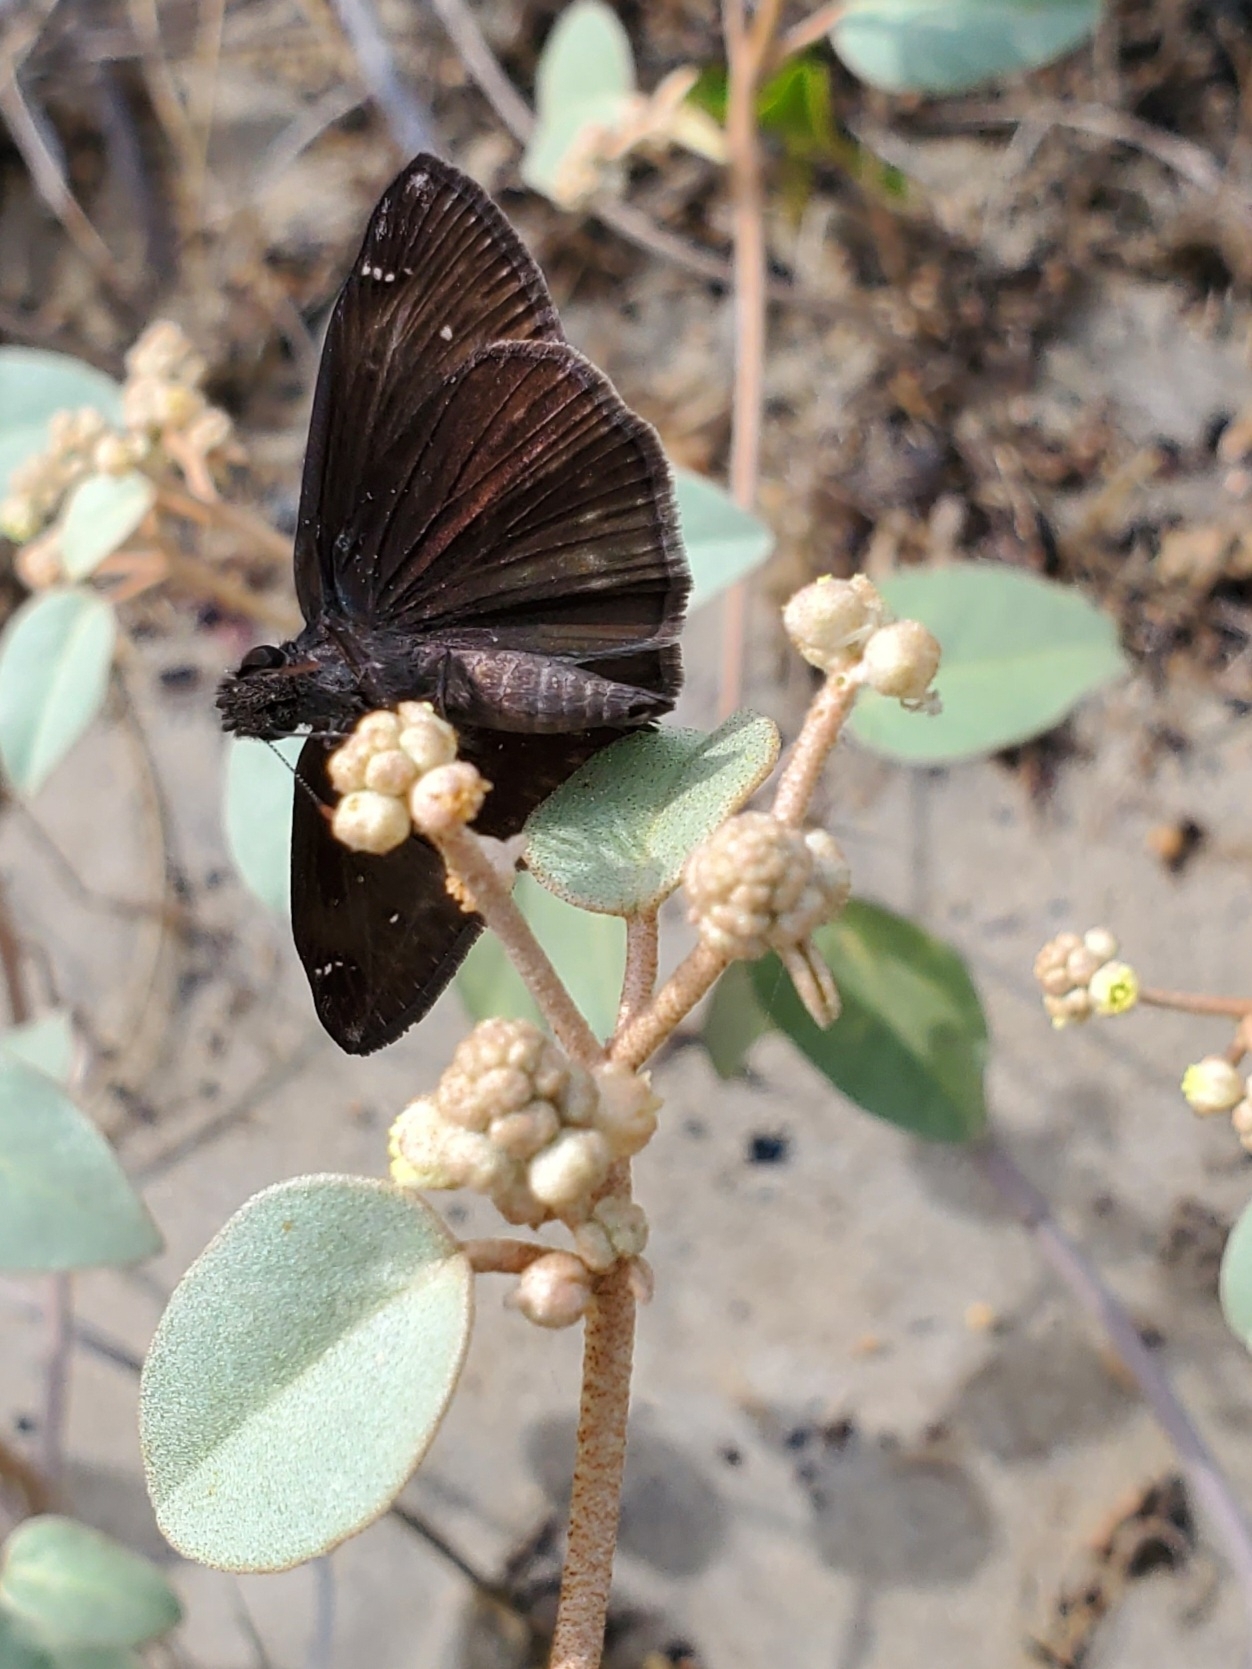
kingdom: Animalia
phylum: Arthropoda
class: Insecta
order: Lepidoptera
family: Hesperiidae
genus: Erynnis
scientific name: Erynnis zarucco
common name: Zarucco duskywing
